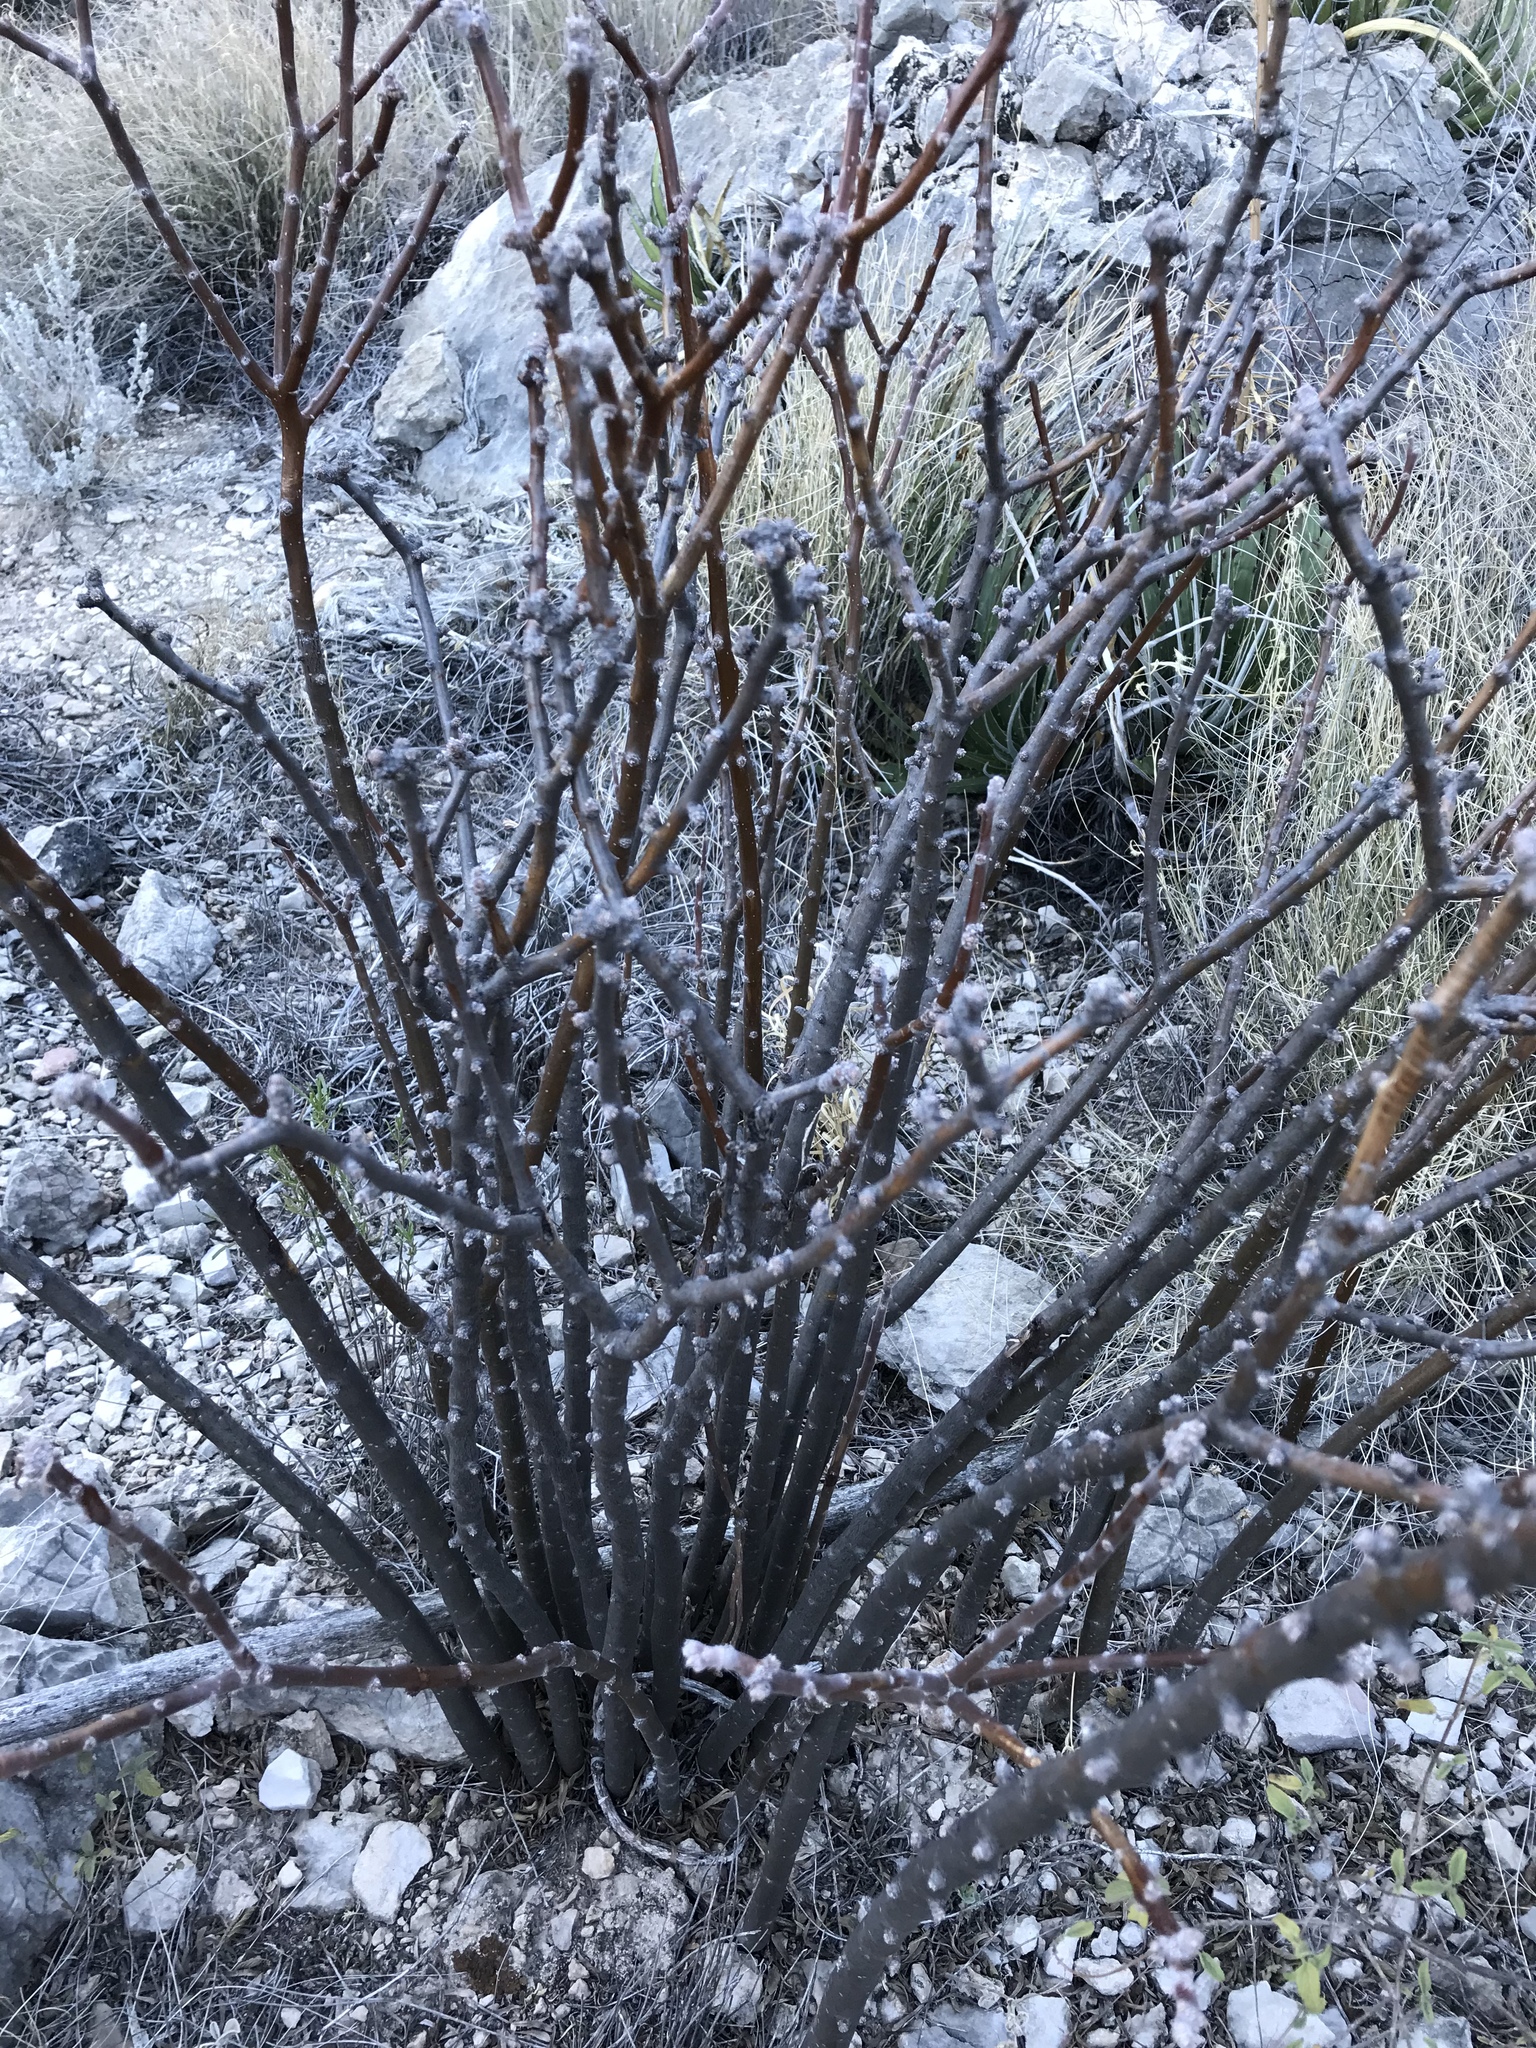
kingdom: Plantae
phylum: Tracheophyta
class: Magnoliopsida
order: Malpighiales
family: Euphorbiaceae
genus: Jatropha
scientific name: Jatropha dioica
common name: Leatherstem
